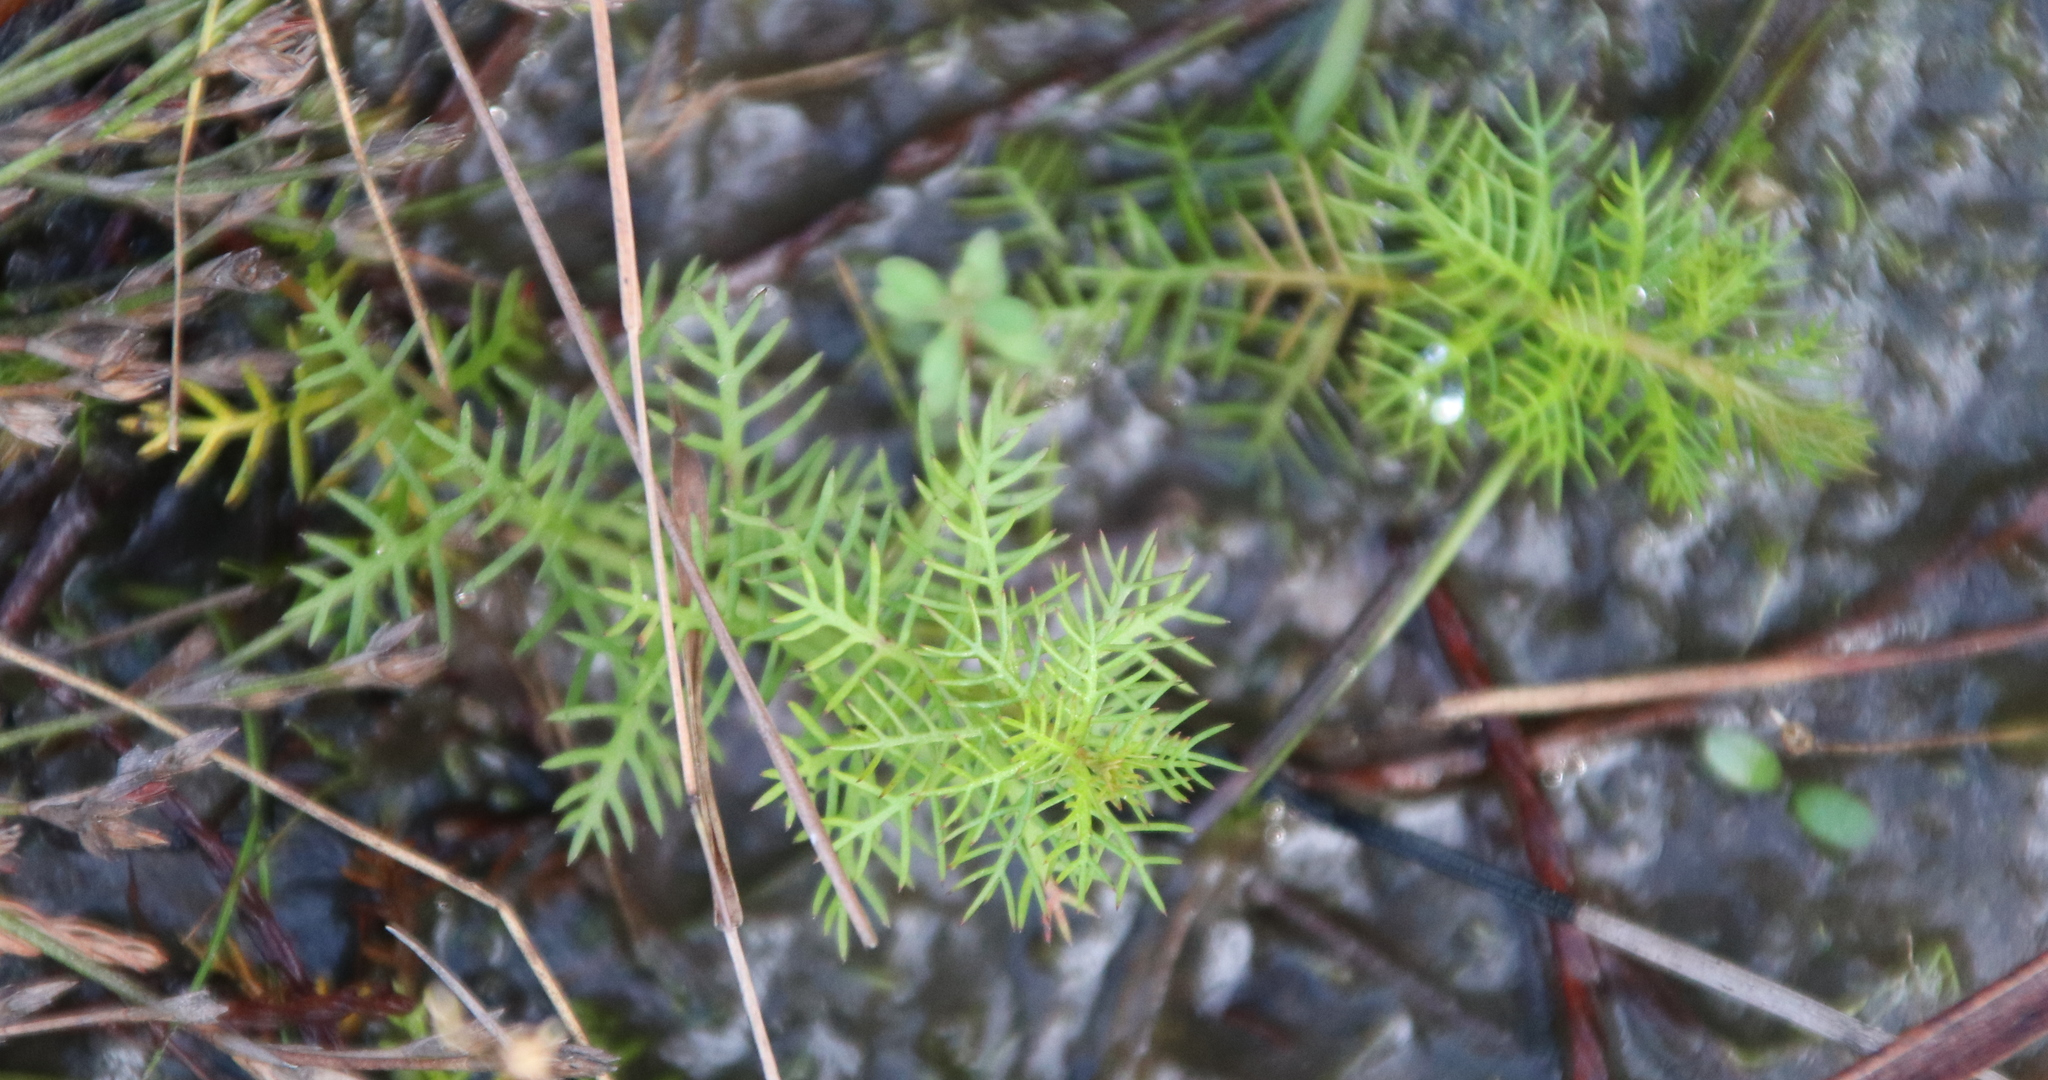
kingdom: Plantae
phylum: Tracheophyta
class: Magnoliopsida
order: Saxifragales
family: Haloragaceae
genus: Proserpinaca
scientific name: Proserpinaca pectinata
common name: Comb-leaved mermaidweed
